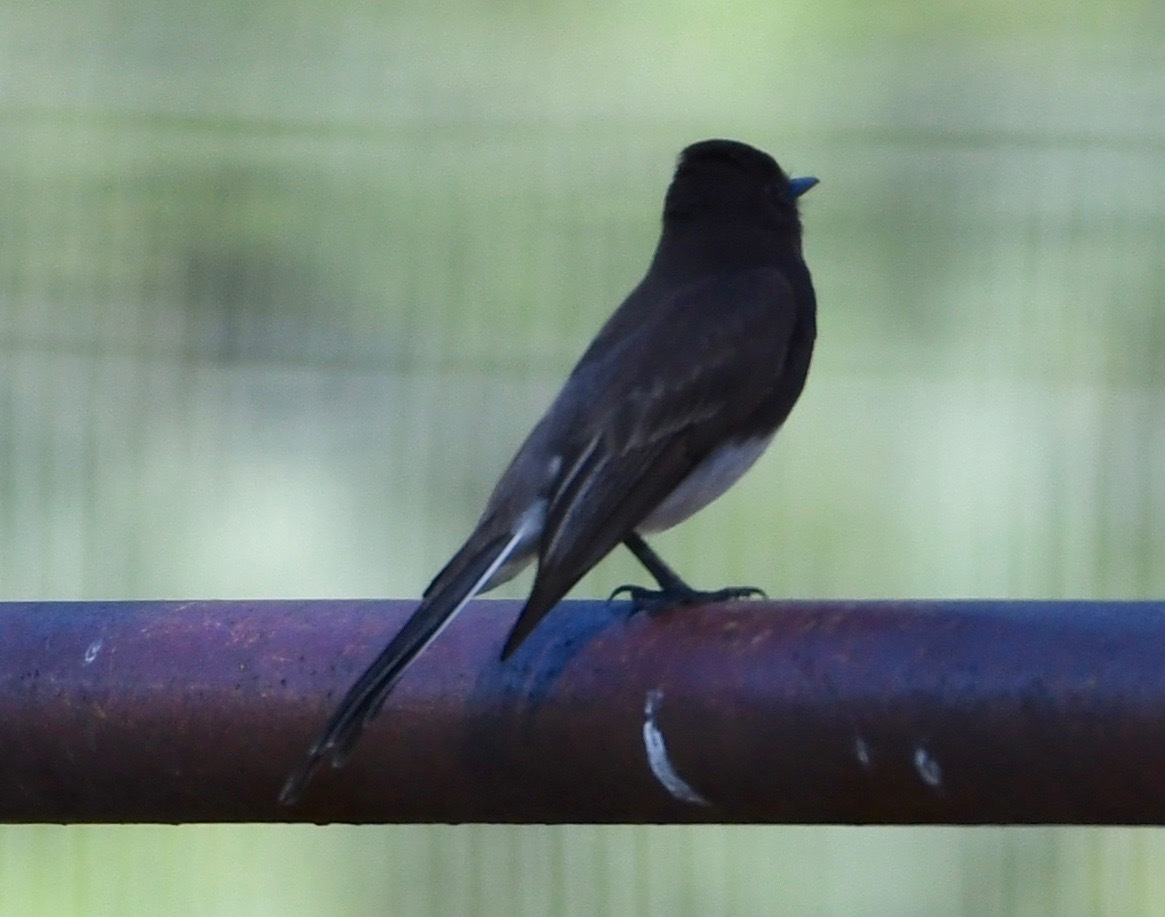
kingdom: Animalia
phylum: Chordata
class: Aves
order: Passeriformes
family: Tyrannidae
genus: Sayornis
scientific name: Sayornis nigricans
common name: Black phoebe
